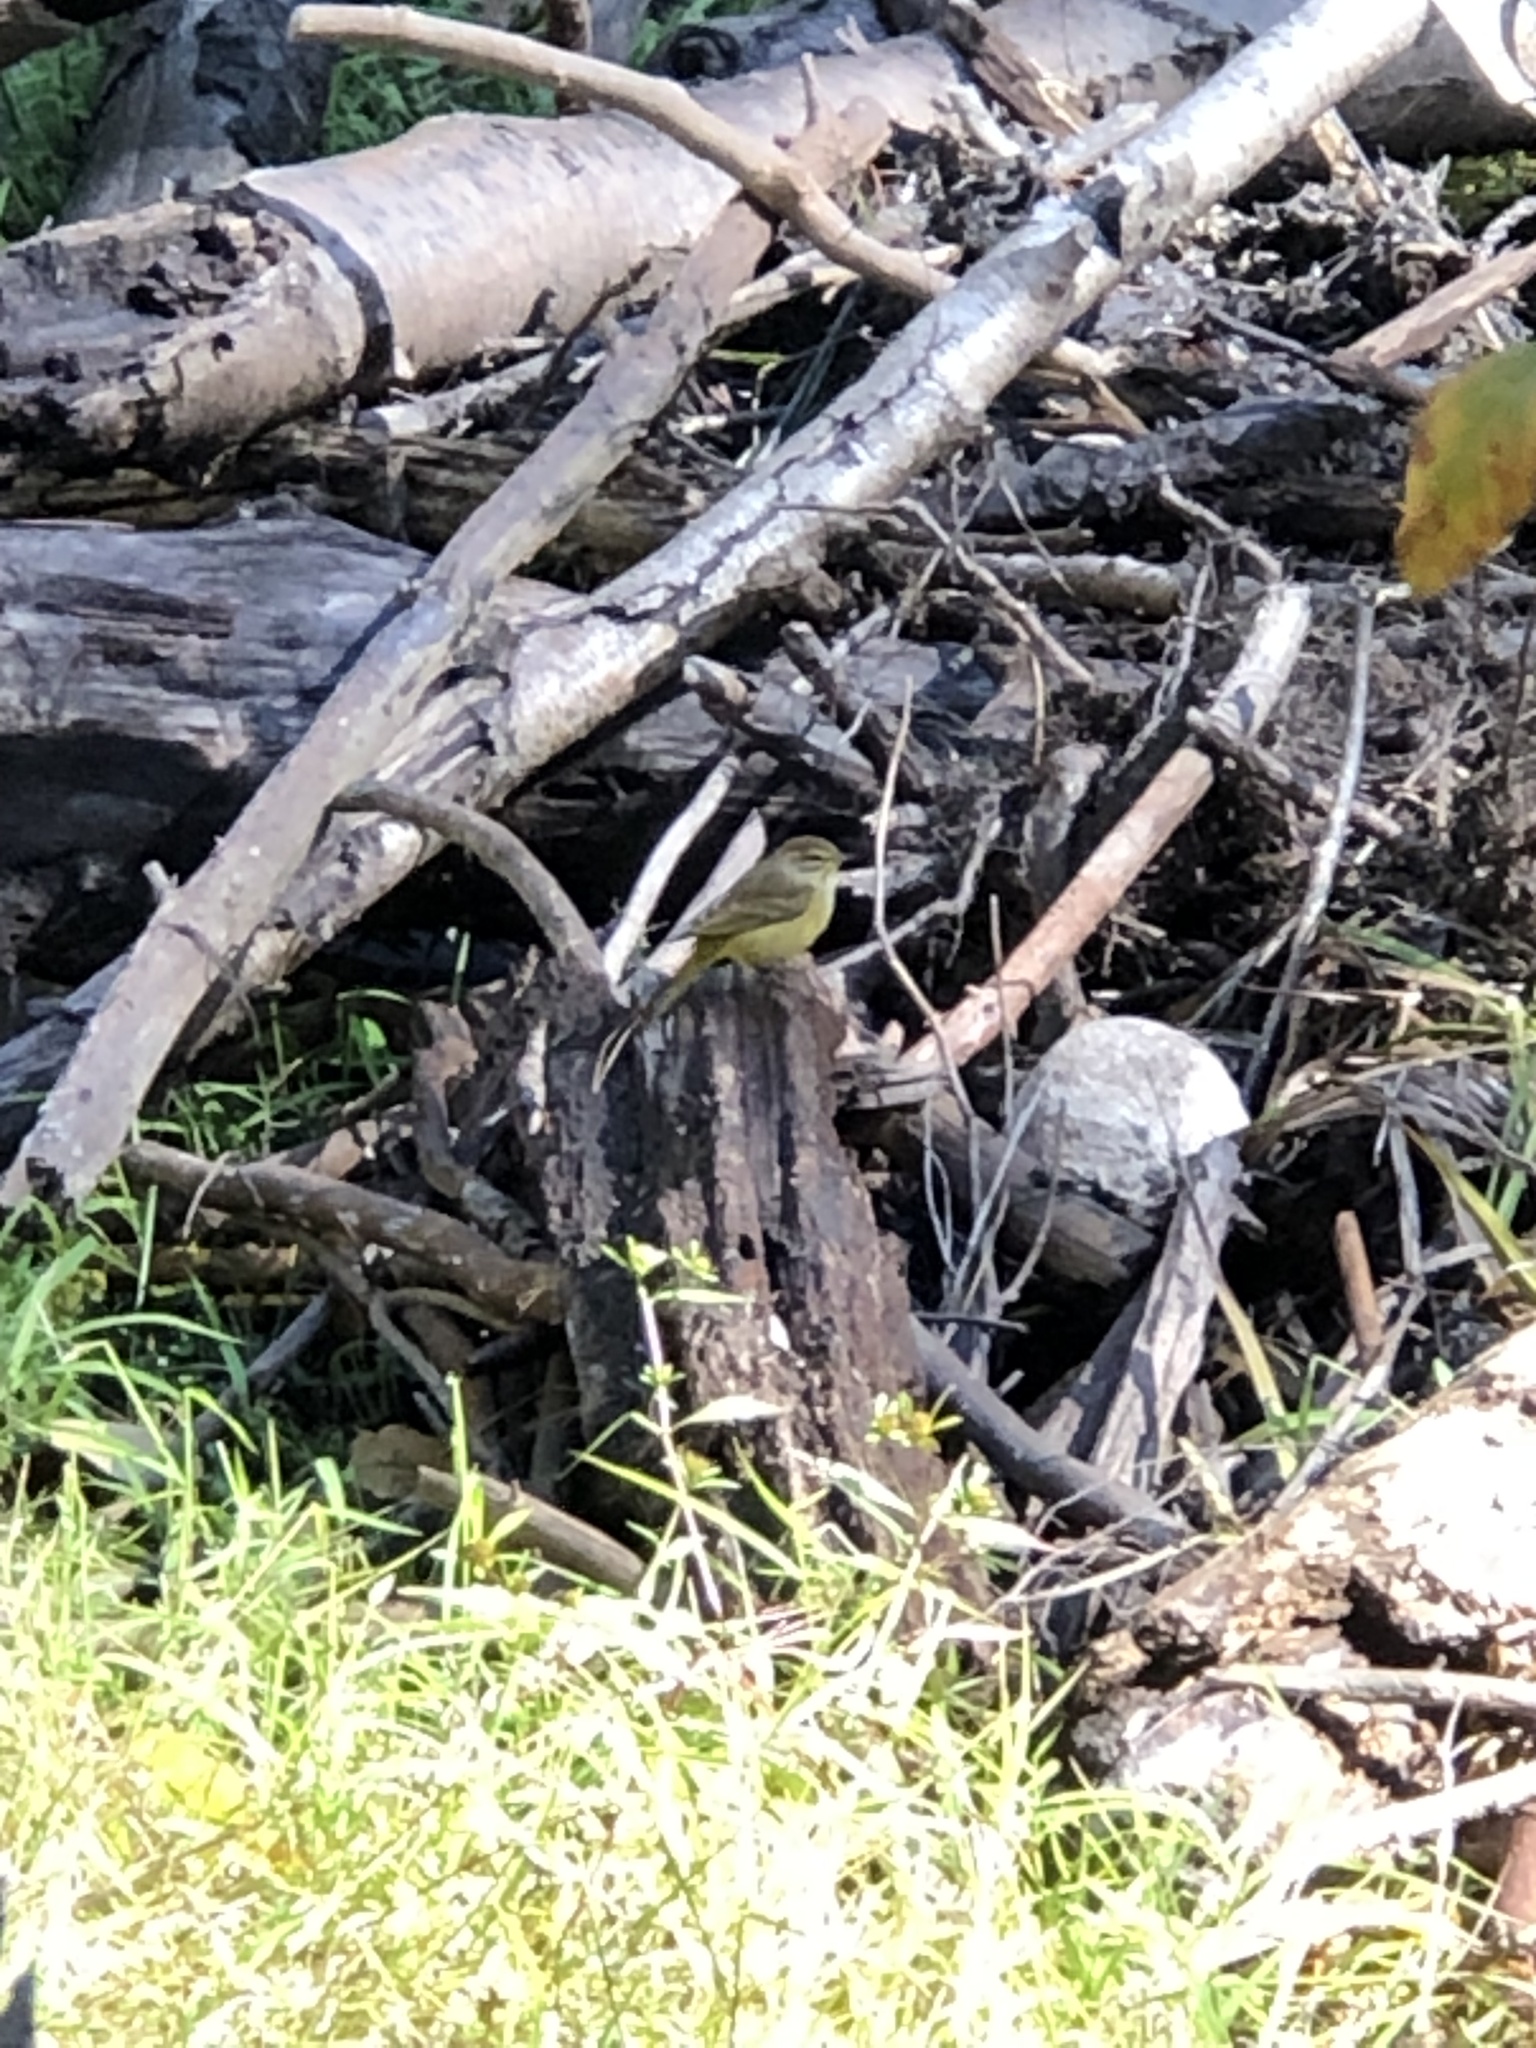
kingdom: Animalia
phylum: Chordata
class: Aves
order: Passeriformes
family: Parulidae
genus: Setophaga
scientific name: Setophaga palmarum
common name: Palm warbler
